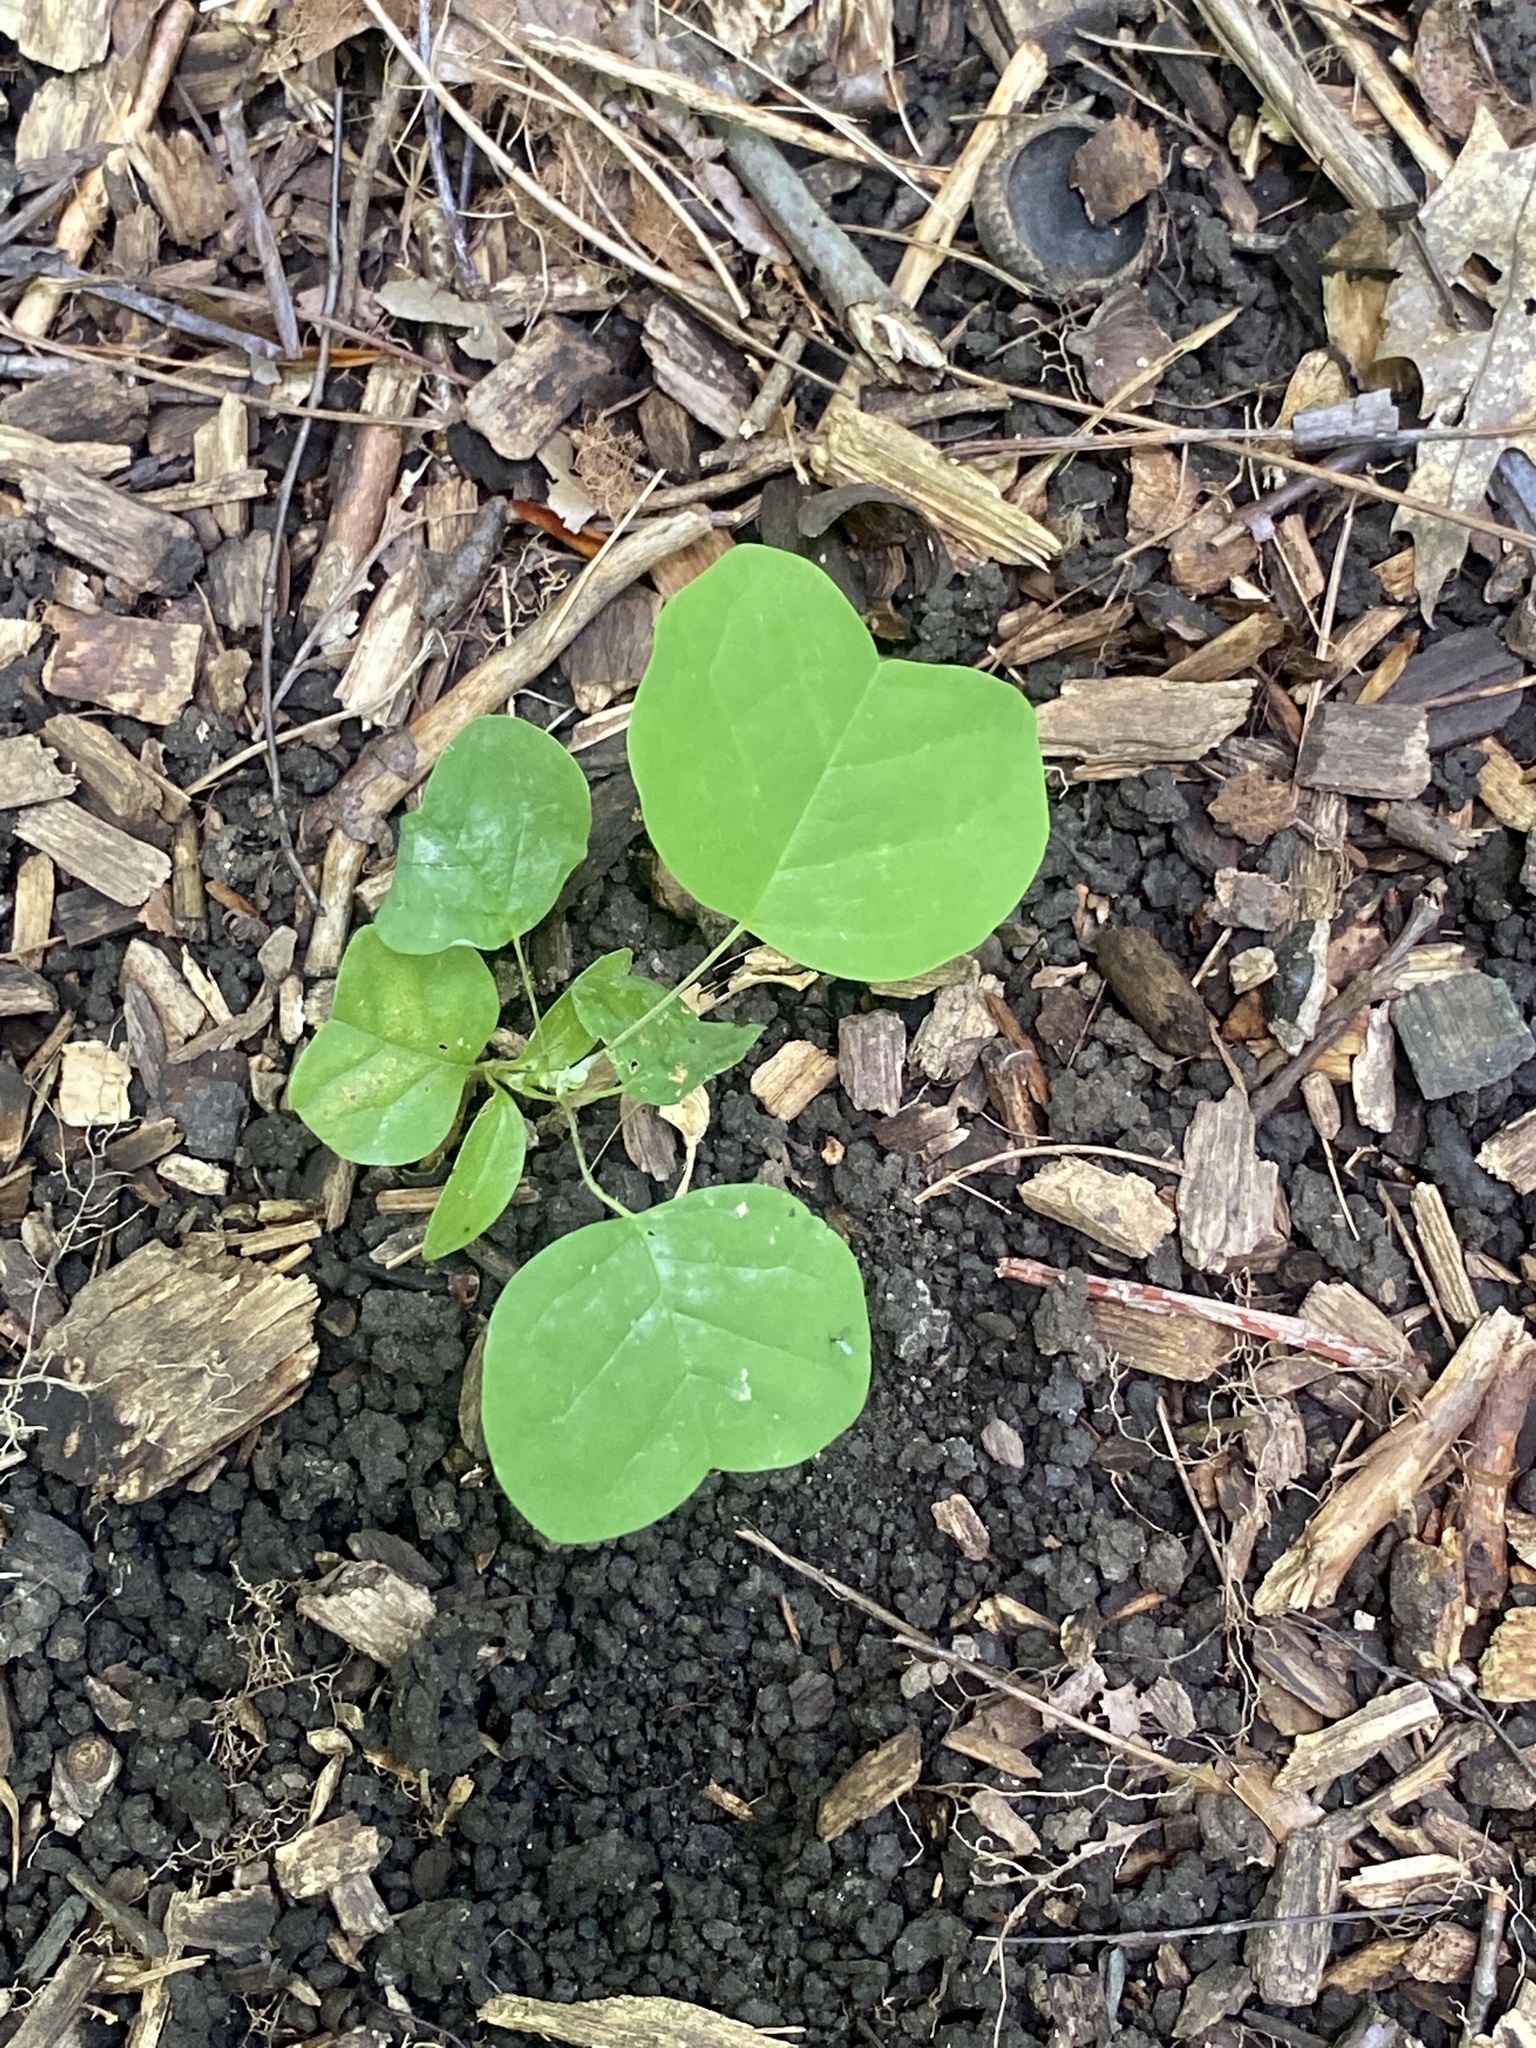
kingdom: Plantae
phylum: Tracheophyta
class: Magnoliopsida
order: Magnoliales
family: Magnoliaceae
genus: Liriodendron
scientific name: Liriodendron tulipifera
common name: Tulip tree
